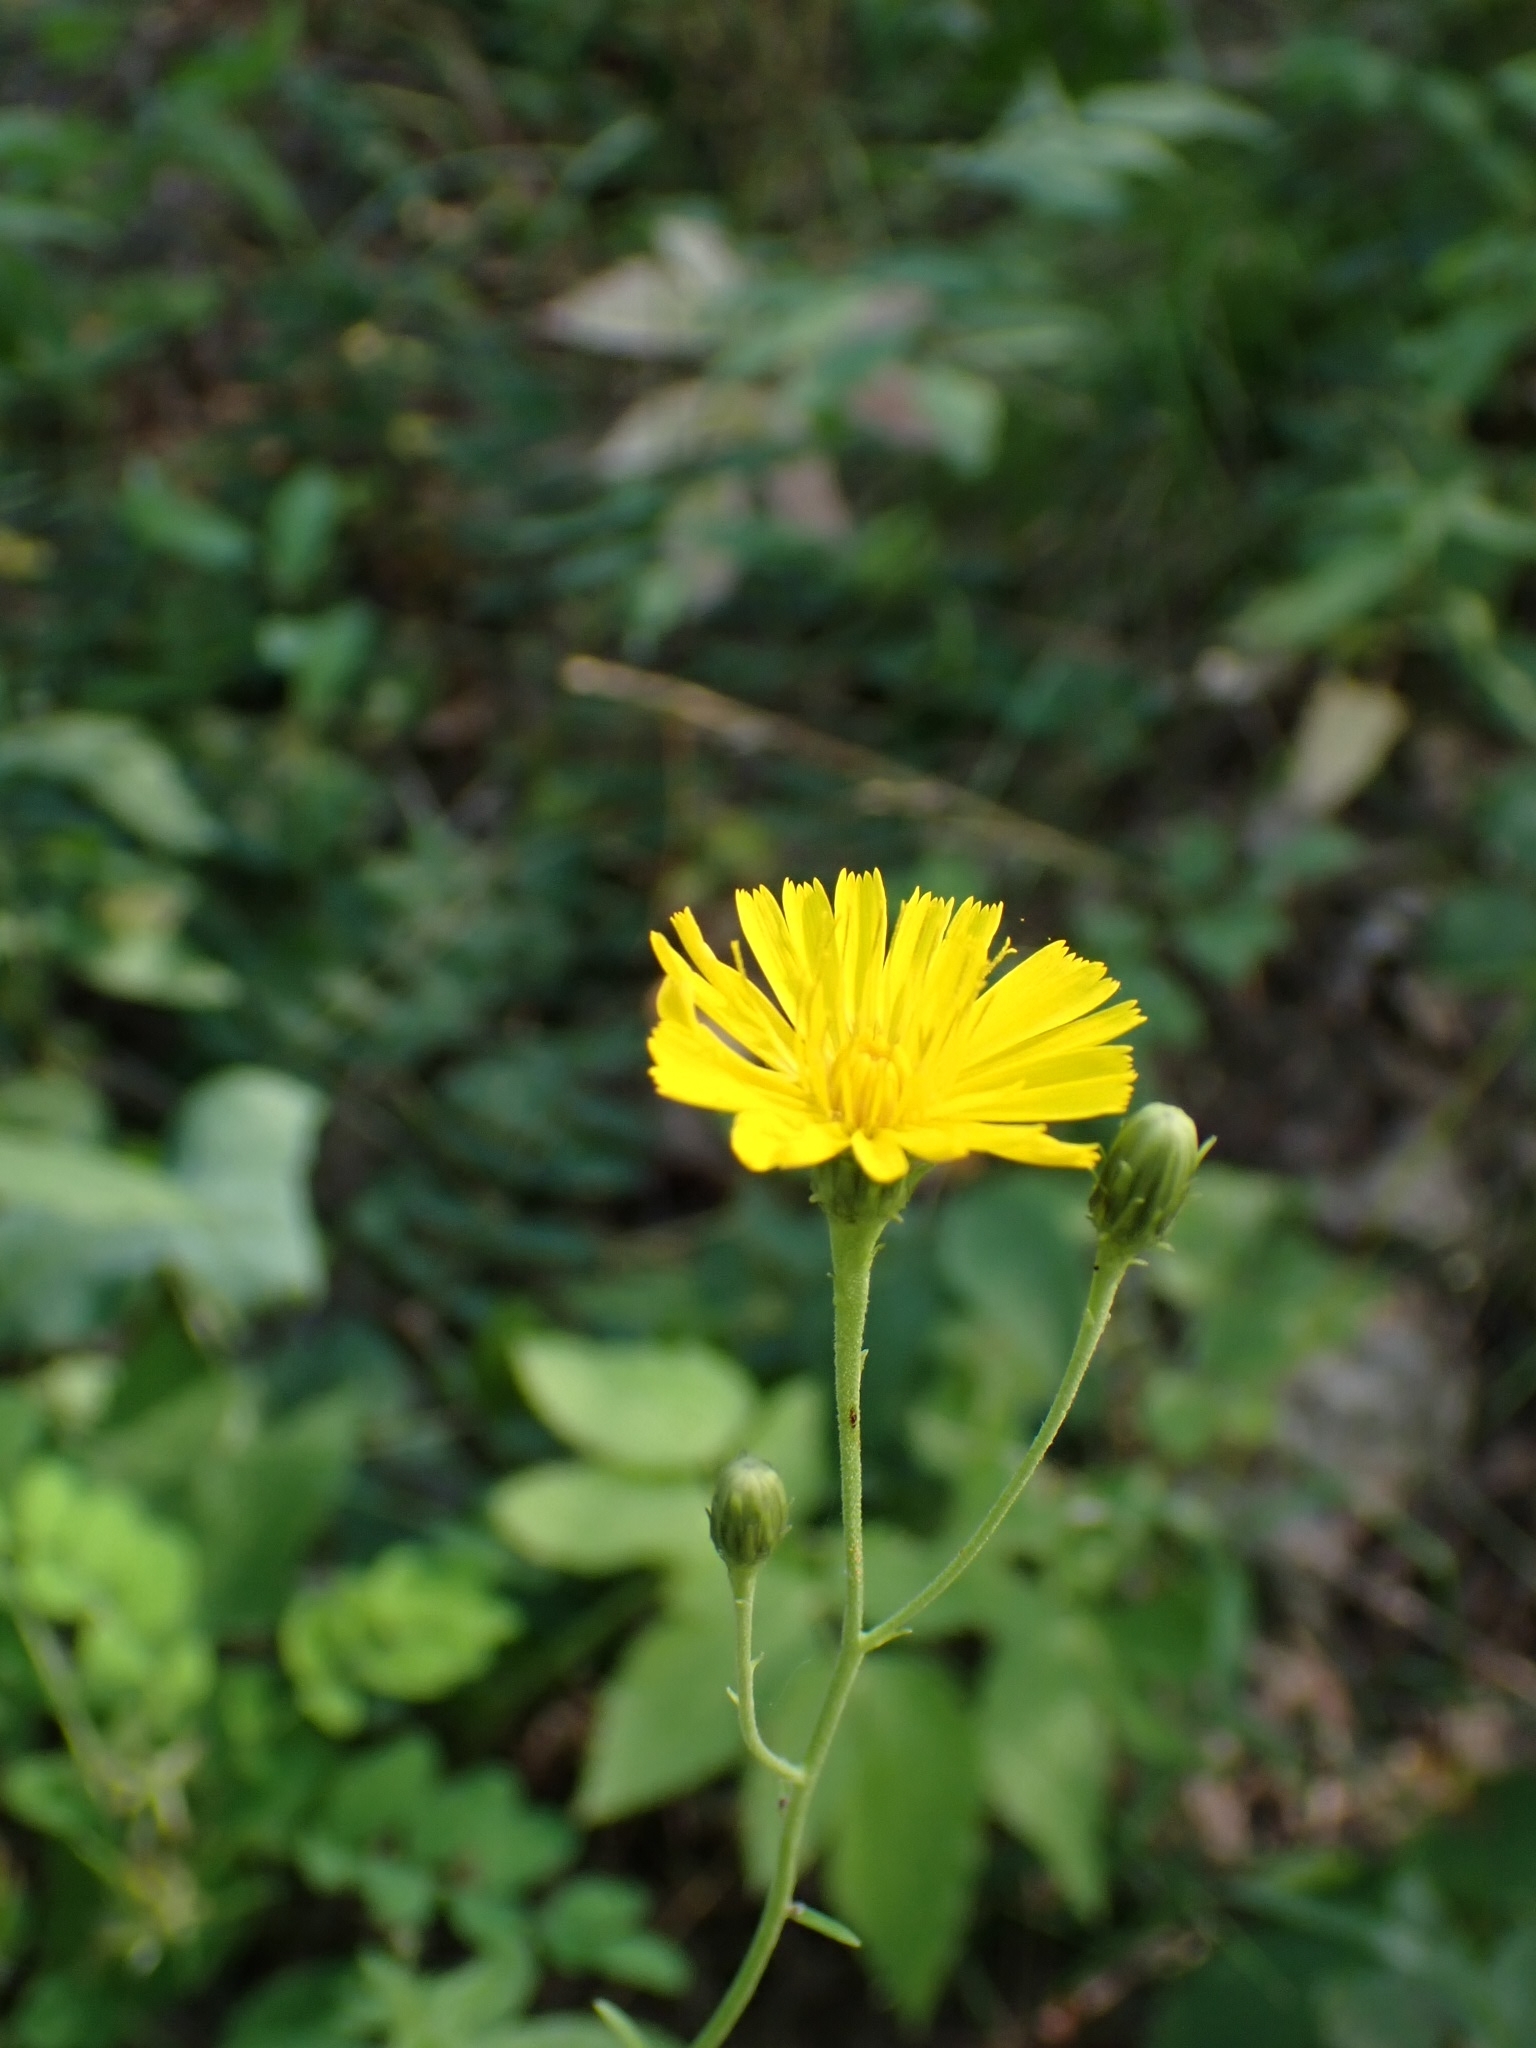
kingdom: Plantae
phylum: Tracheophyta
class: Magnoliopsida
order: Asterales
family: Asteraceae
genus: Hieracium
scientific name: Hieracium umbellatum
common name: Northern hawkweed
